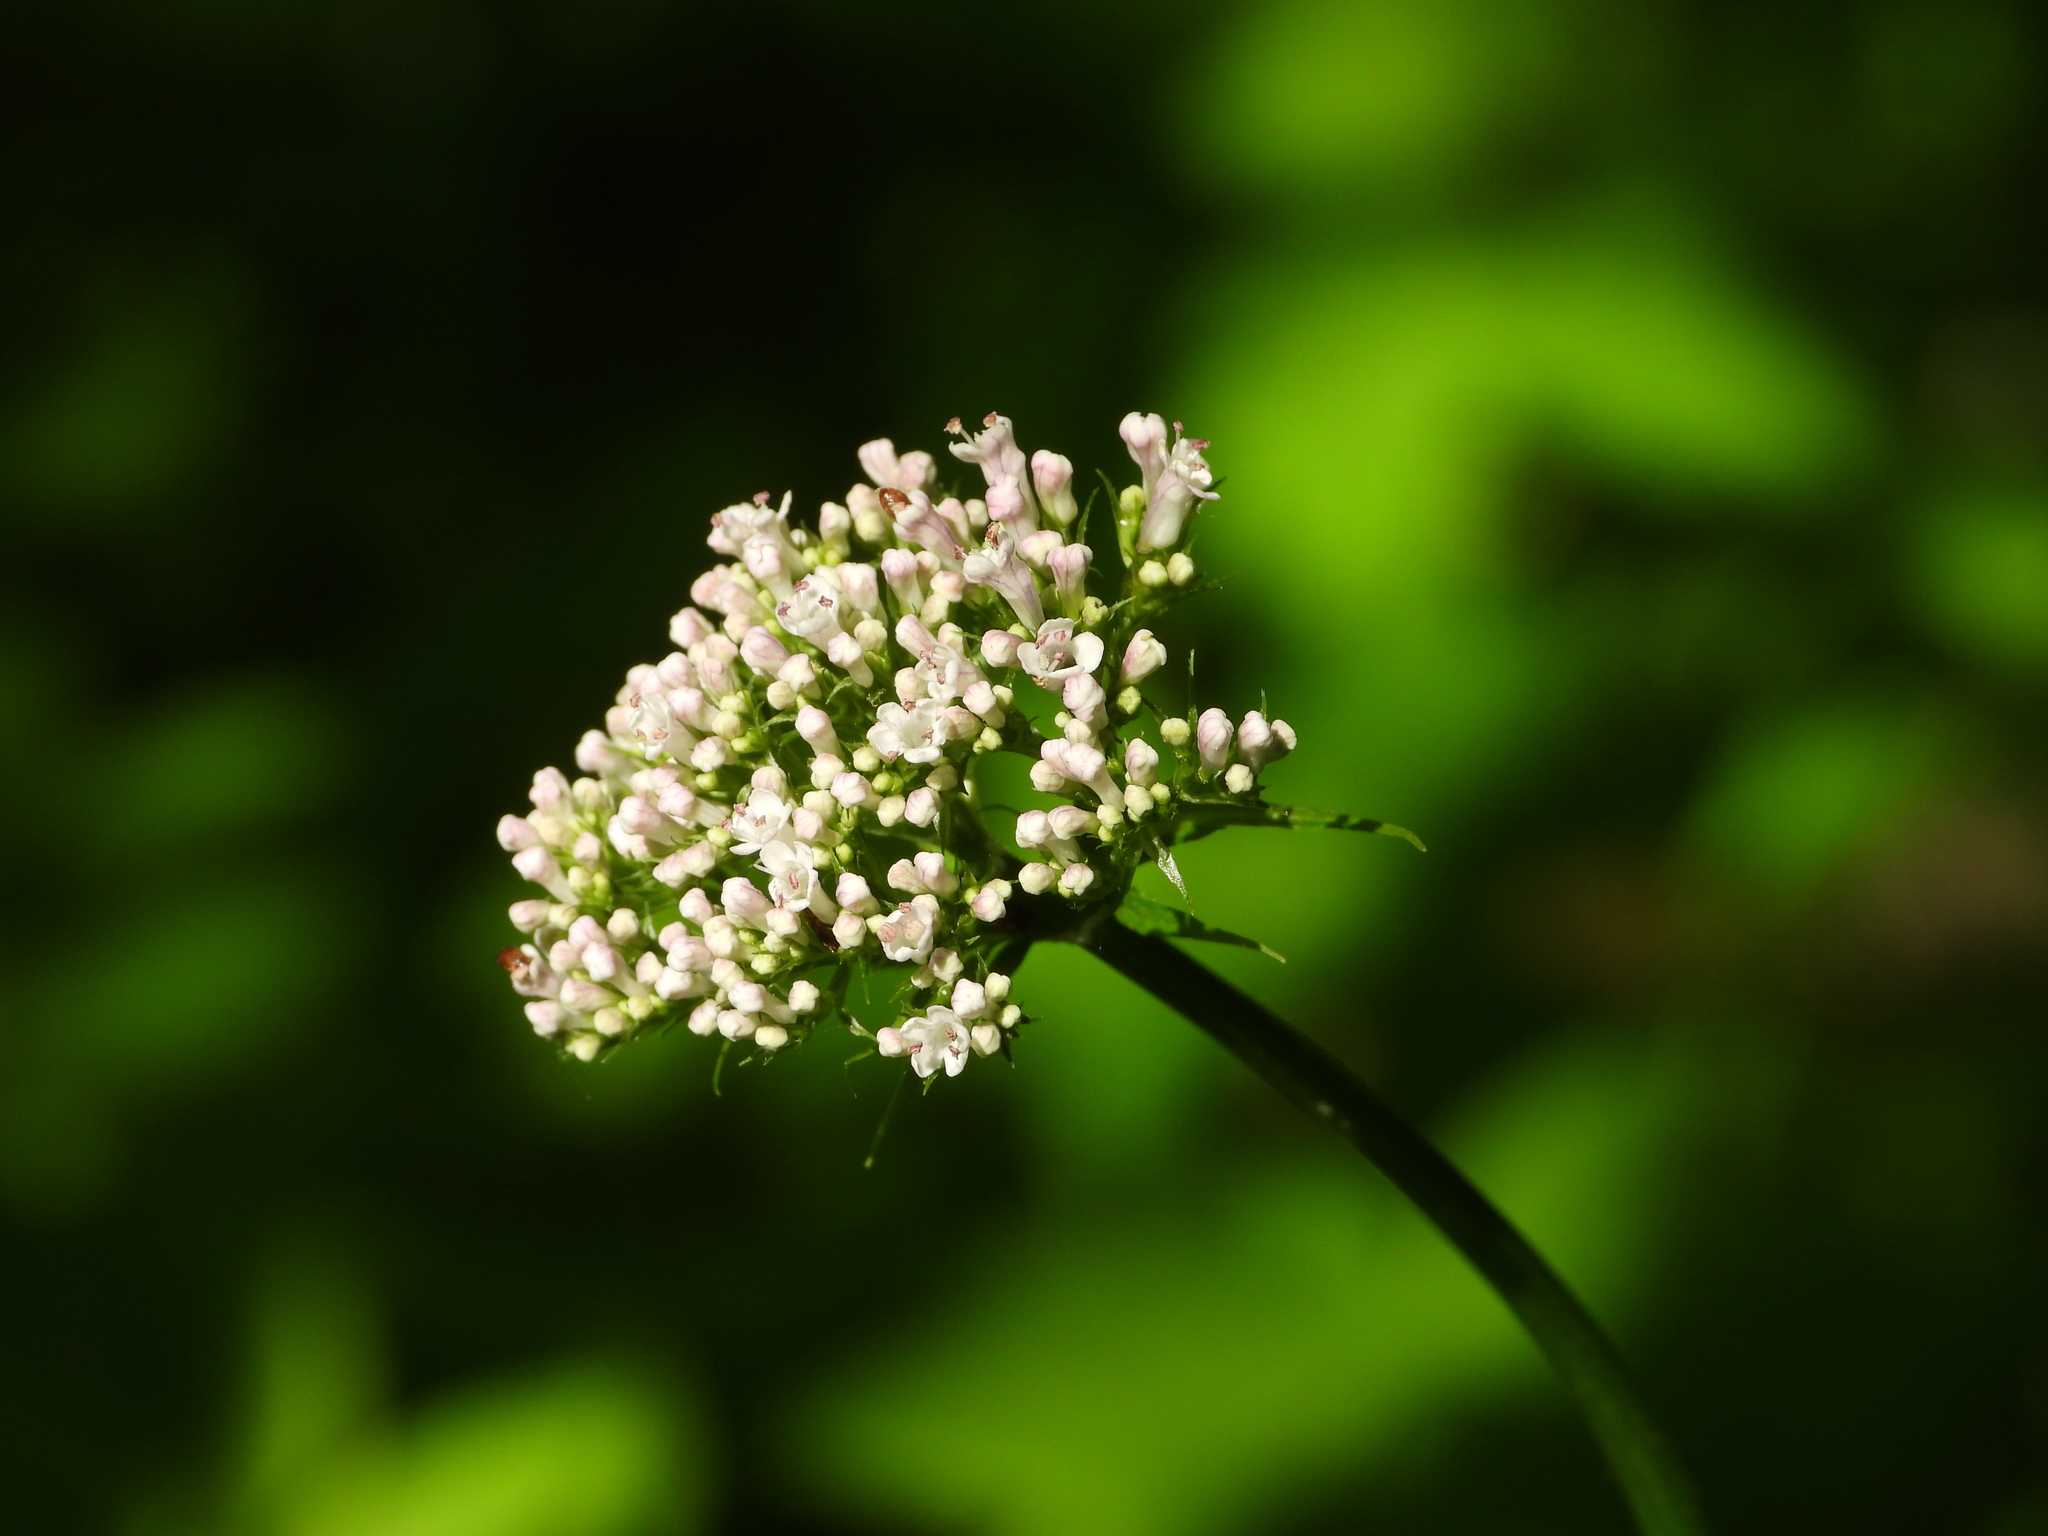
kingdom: Plantae
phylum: Tracheophyta
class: Magnoliopsida
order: Dipsacales
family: Caprifoliaceae
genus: Valeriana
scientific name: Valeriana officinalis
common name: Common valerian
